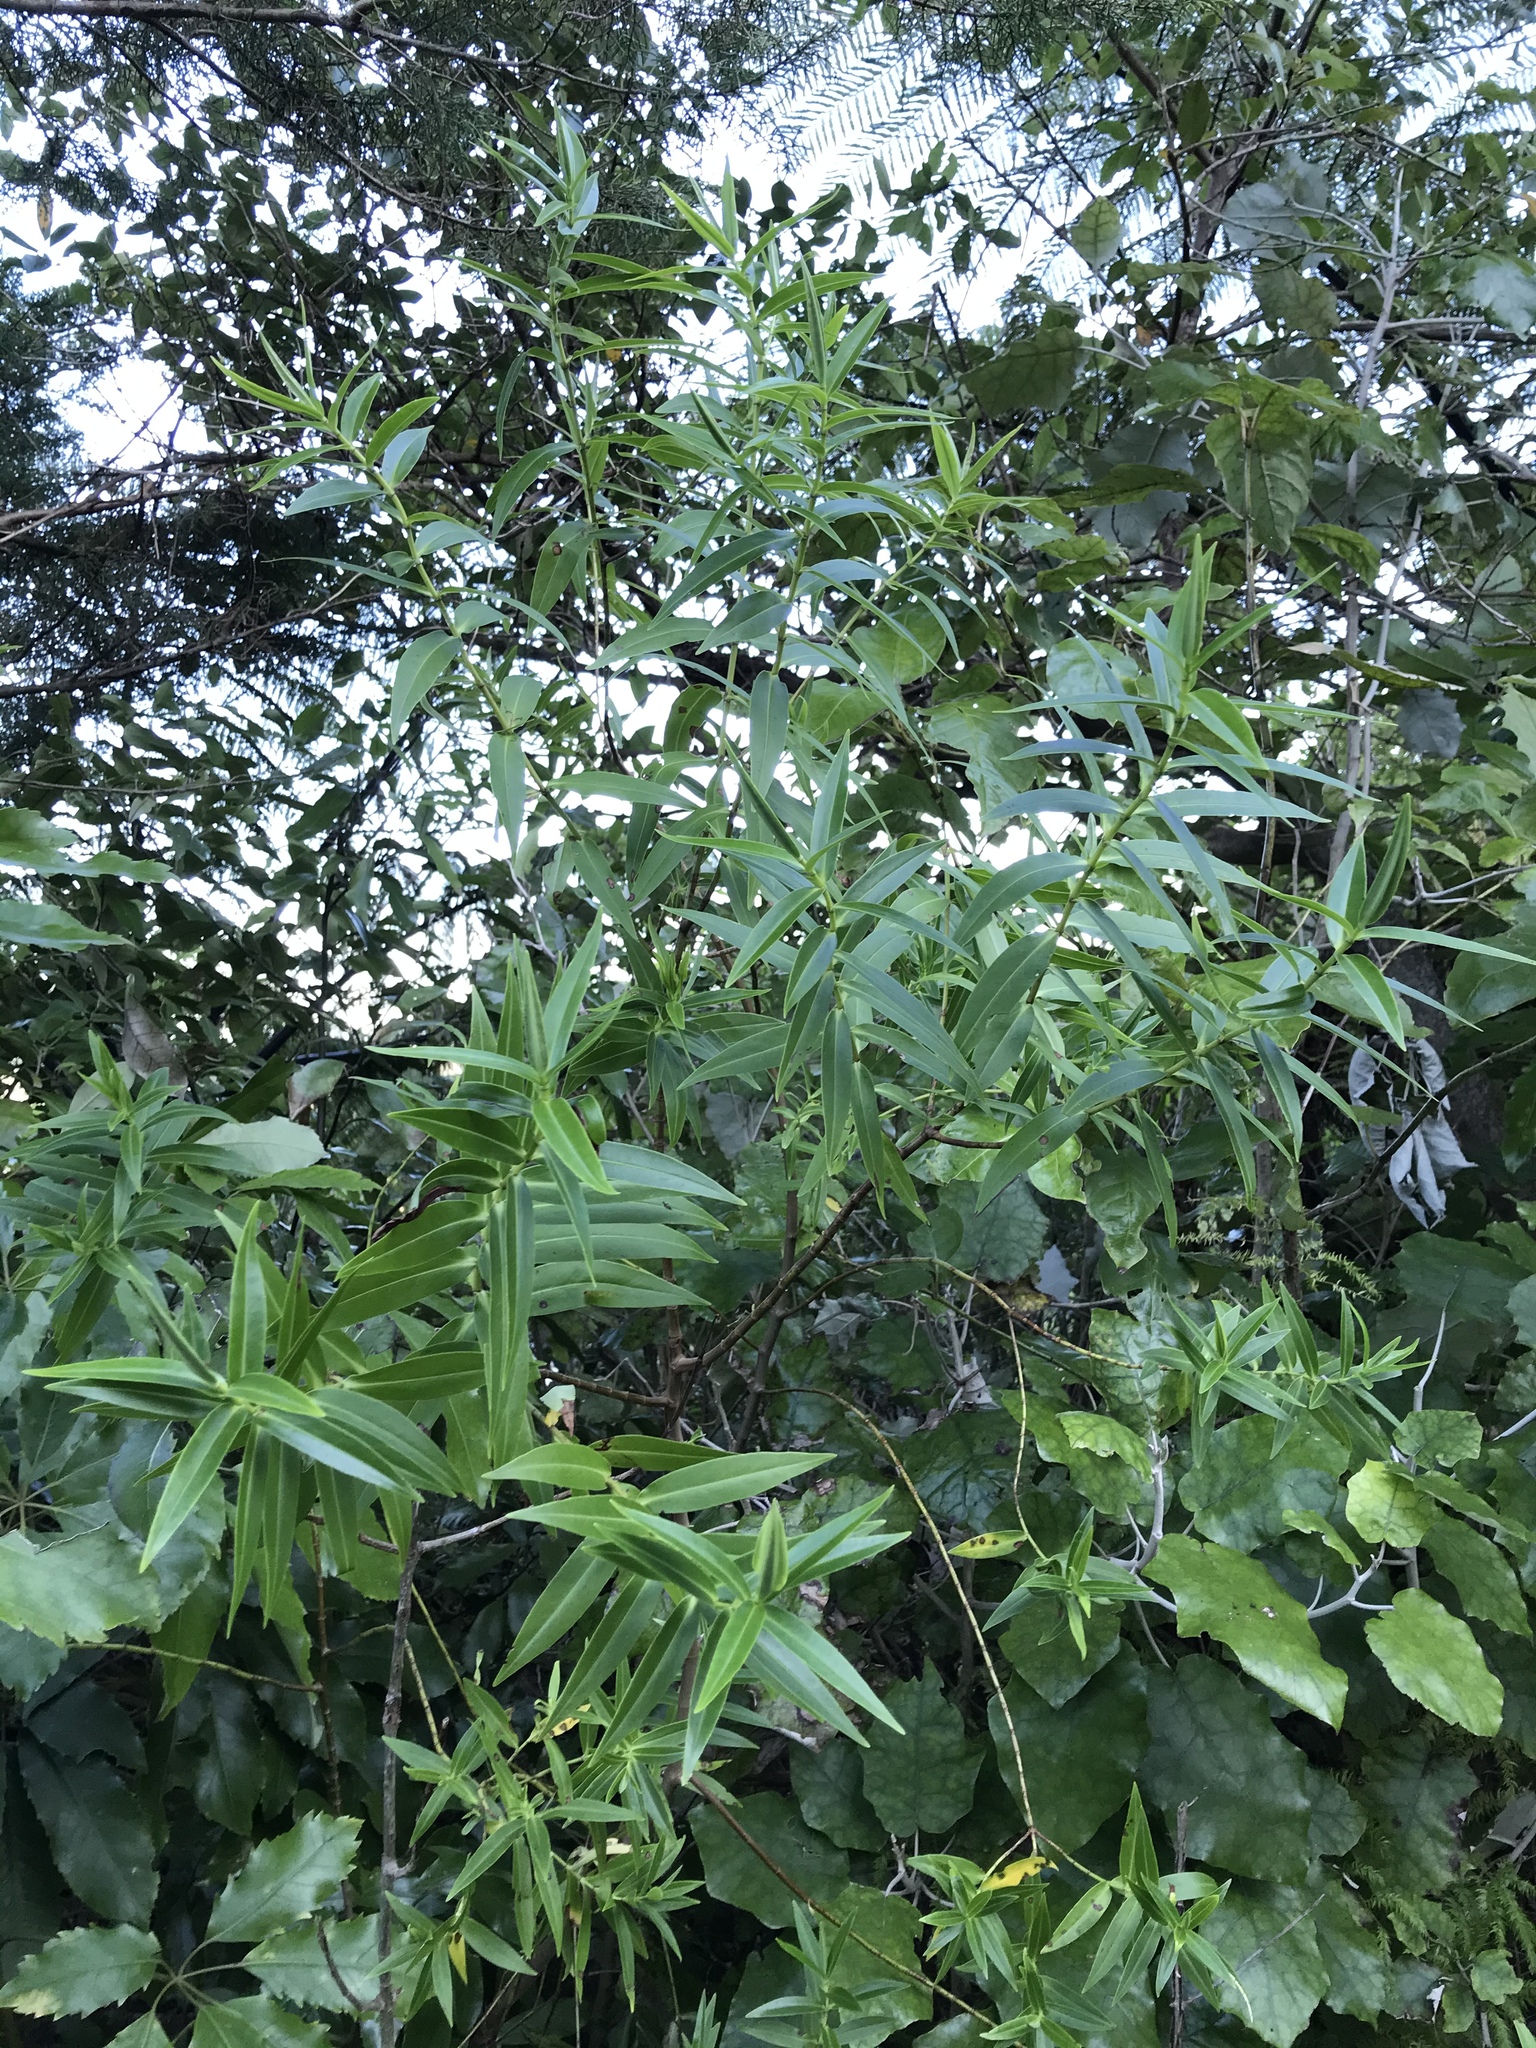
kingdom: Plantae
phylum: Tracheophyta
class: Magnoliopsida
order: Lamiales
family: Plantaginaceae
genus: Veronica
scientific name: Veronica stricta
